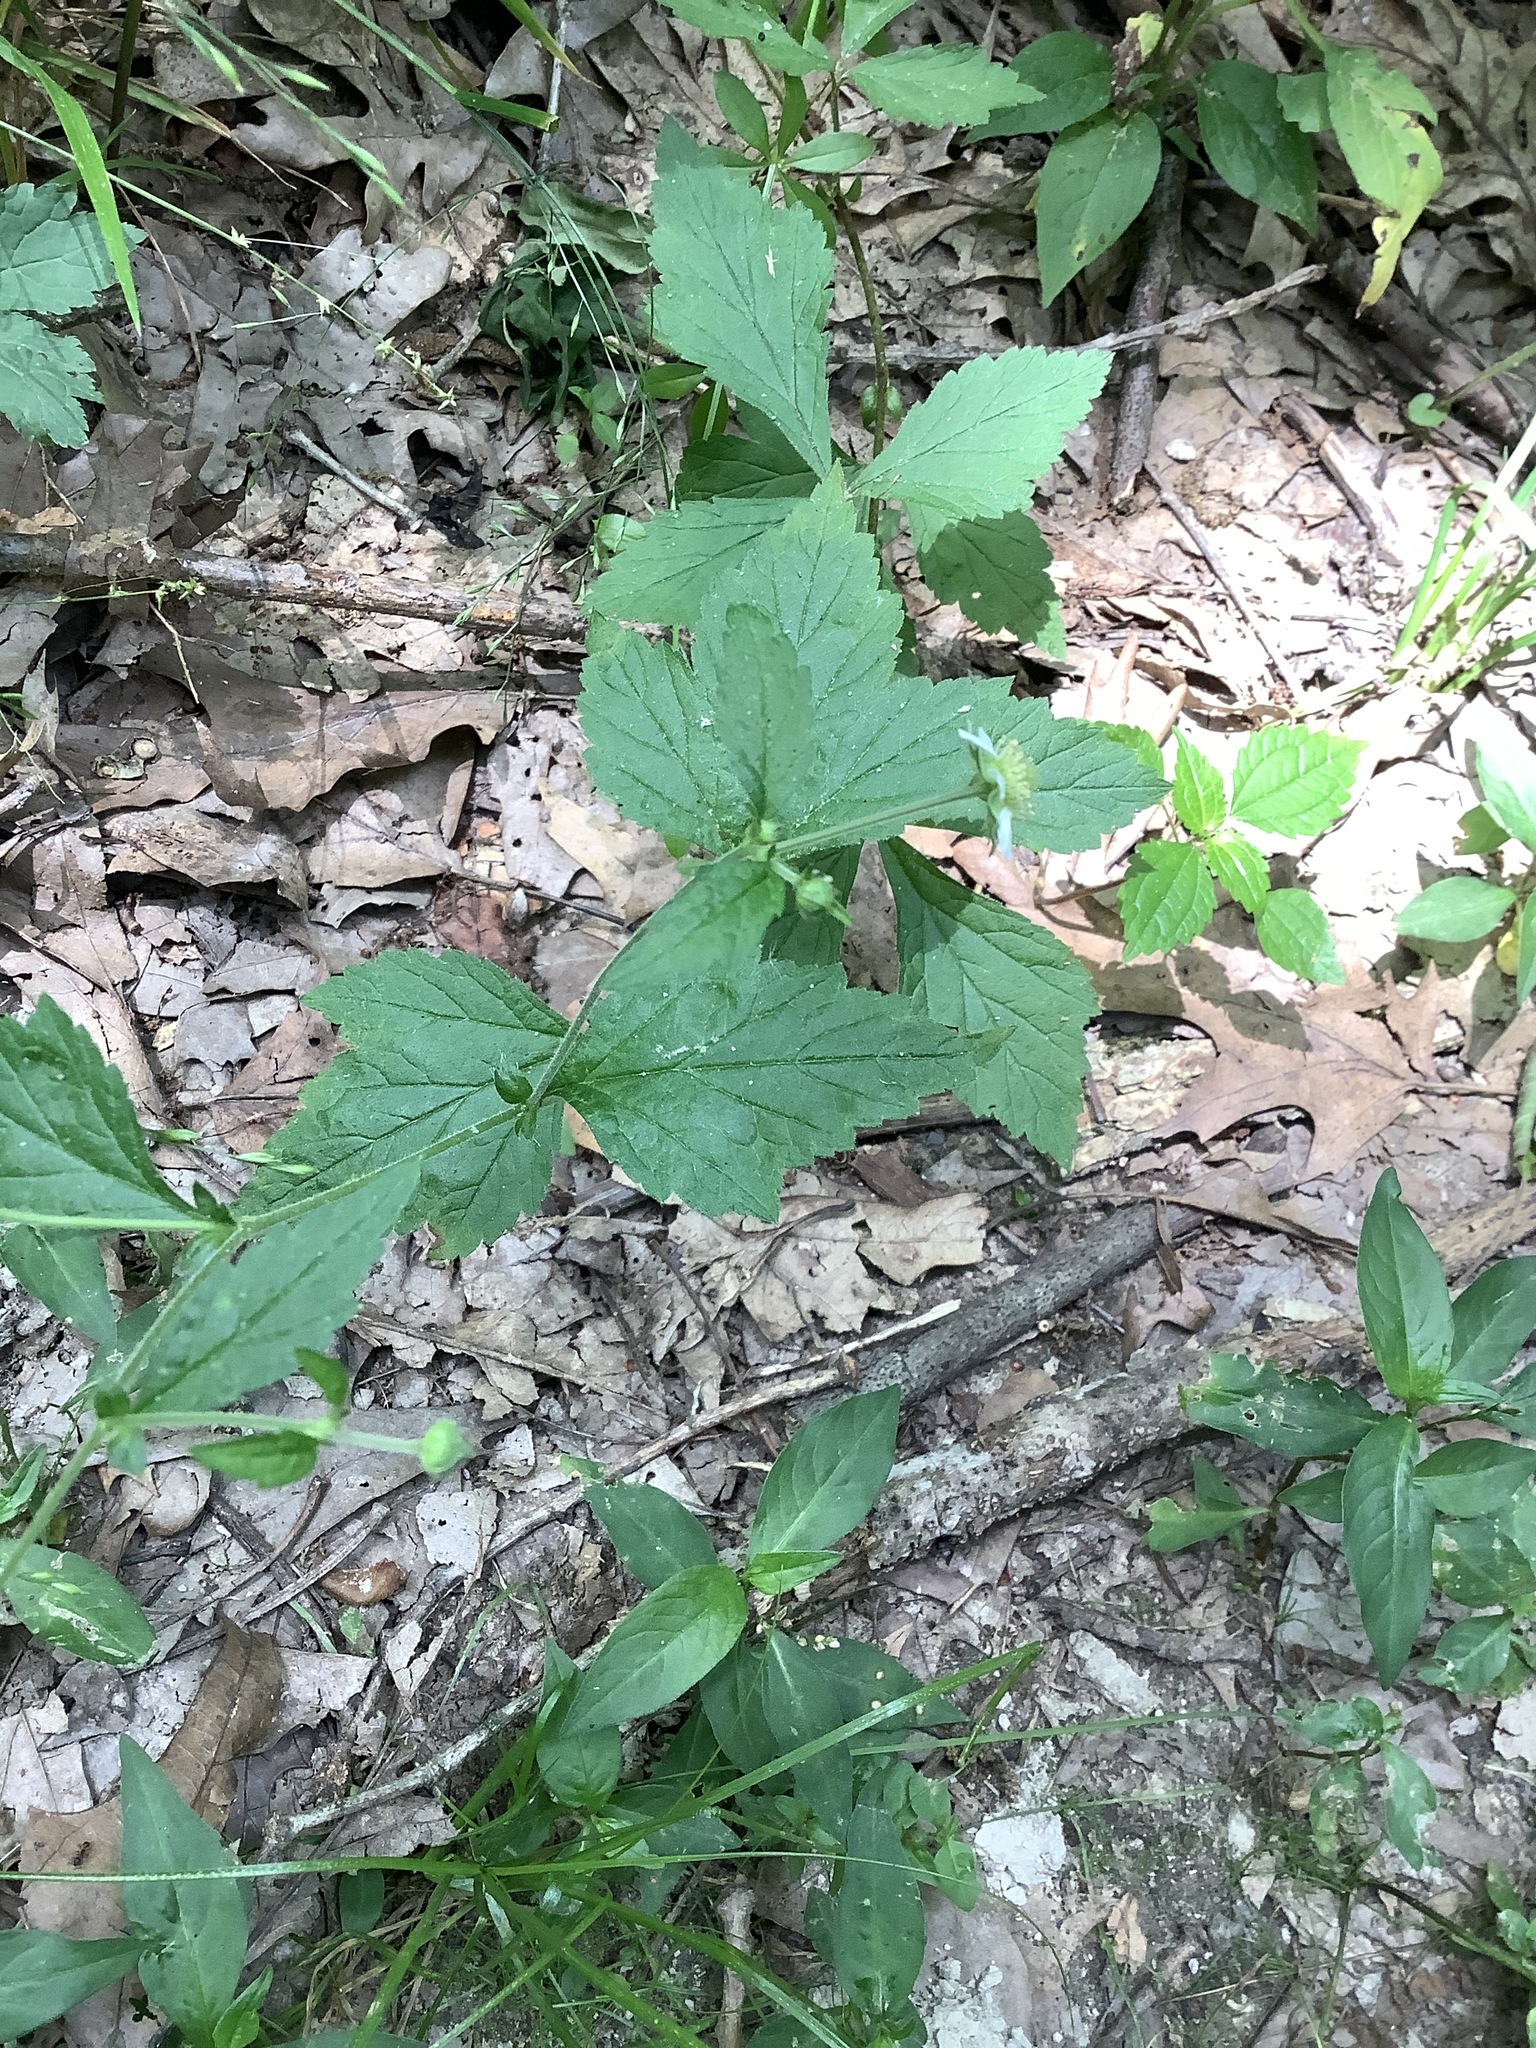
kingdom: Plantae
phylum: Tracheophyta
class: Magnoliopsida
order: Rosales
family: Rosaceae
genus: Geum
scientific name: Geum canadense
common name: White avens
